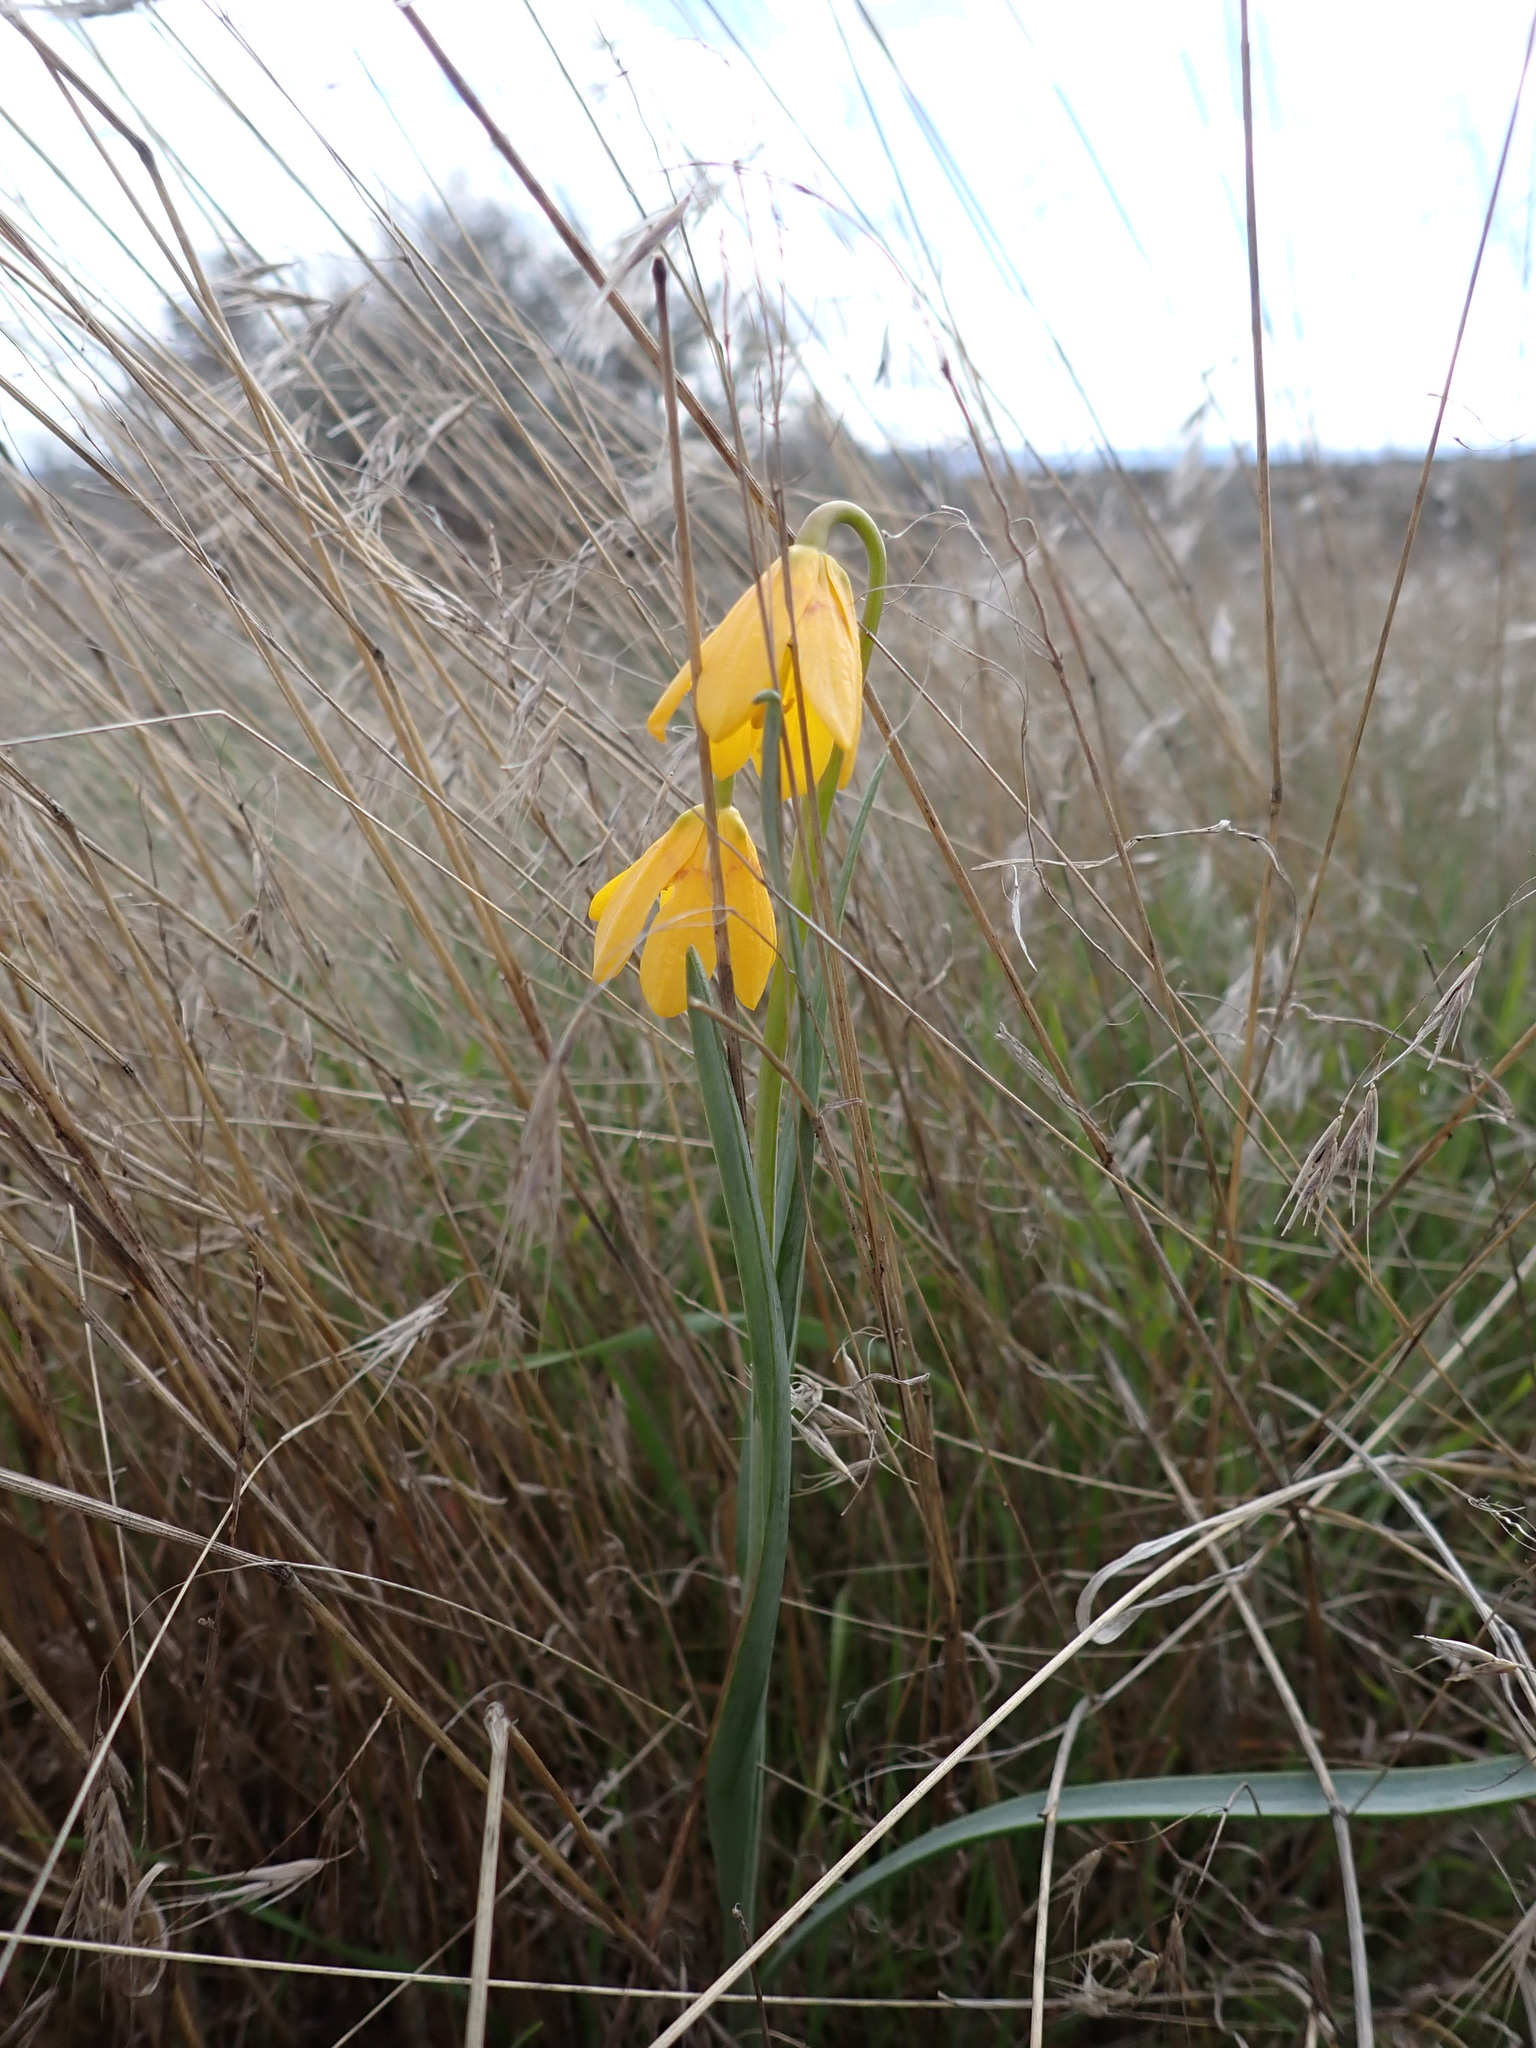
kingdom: Plantae
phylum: Tracheophyta
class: Liliopsida
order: Liliales
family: Liliaceae
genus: Fritillaria
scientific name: Fritillaria pudica
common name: Yellow fritillary
